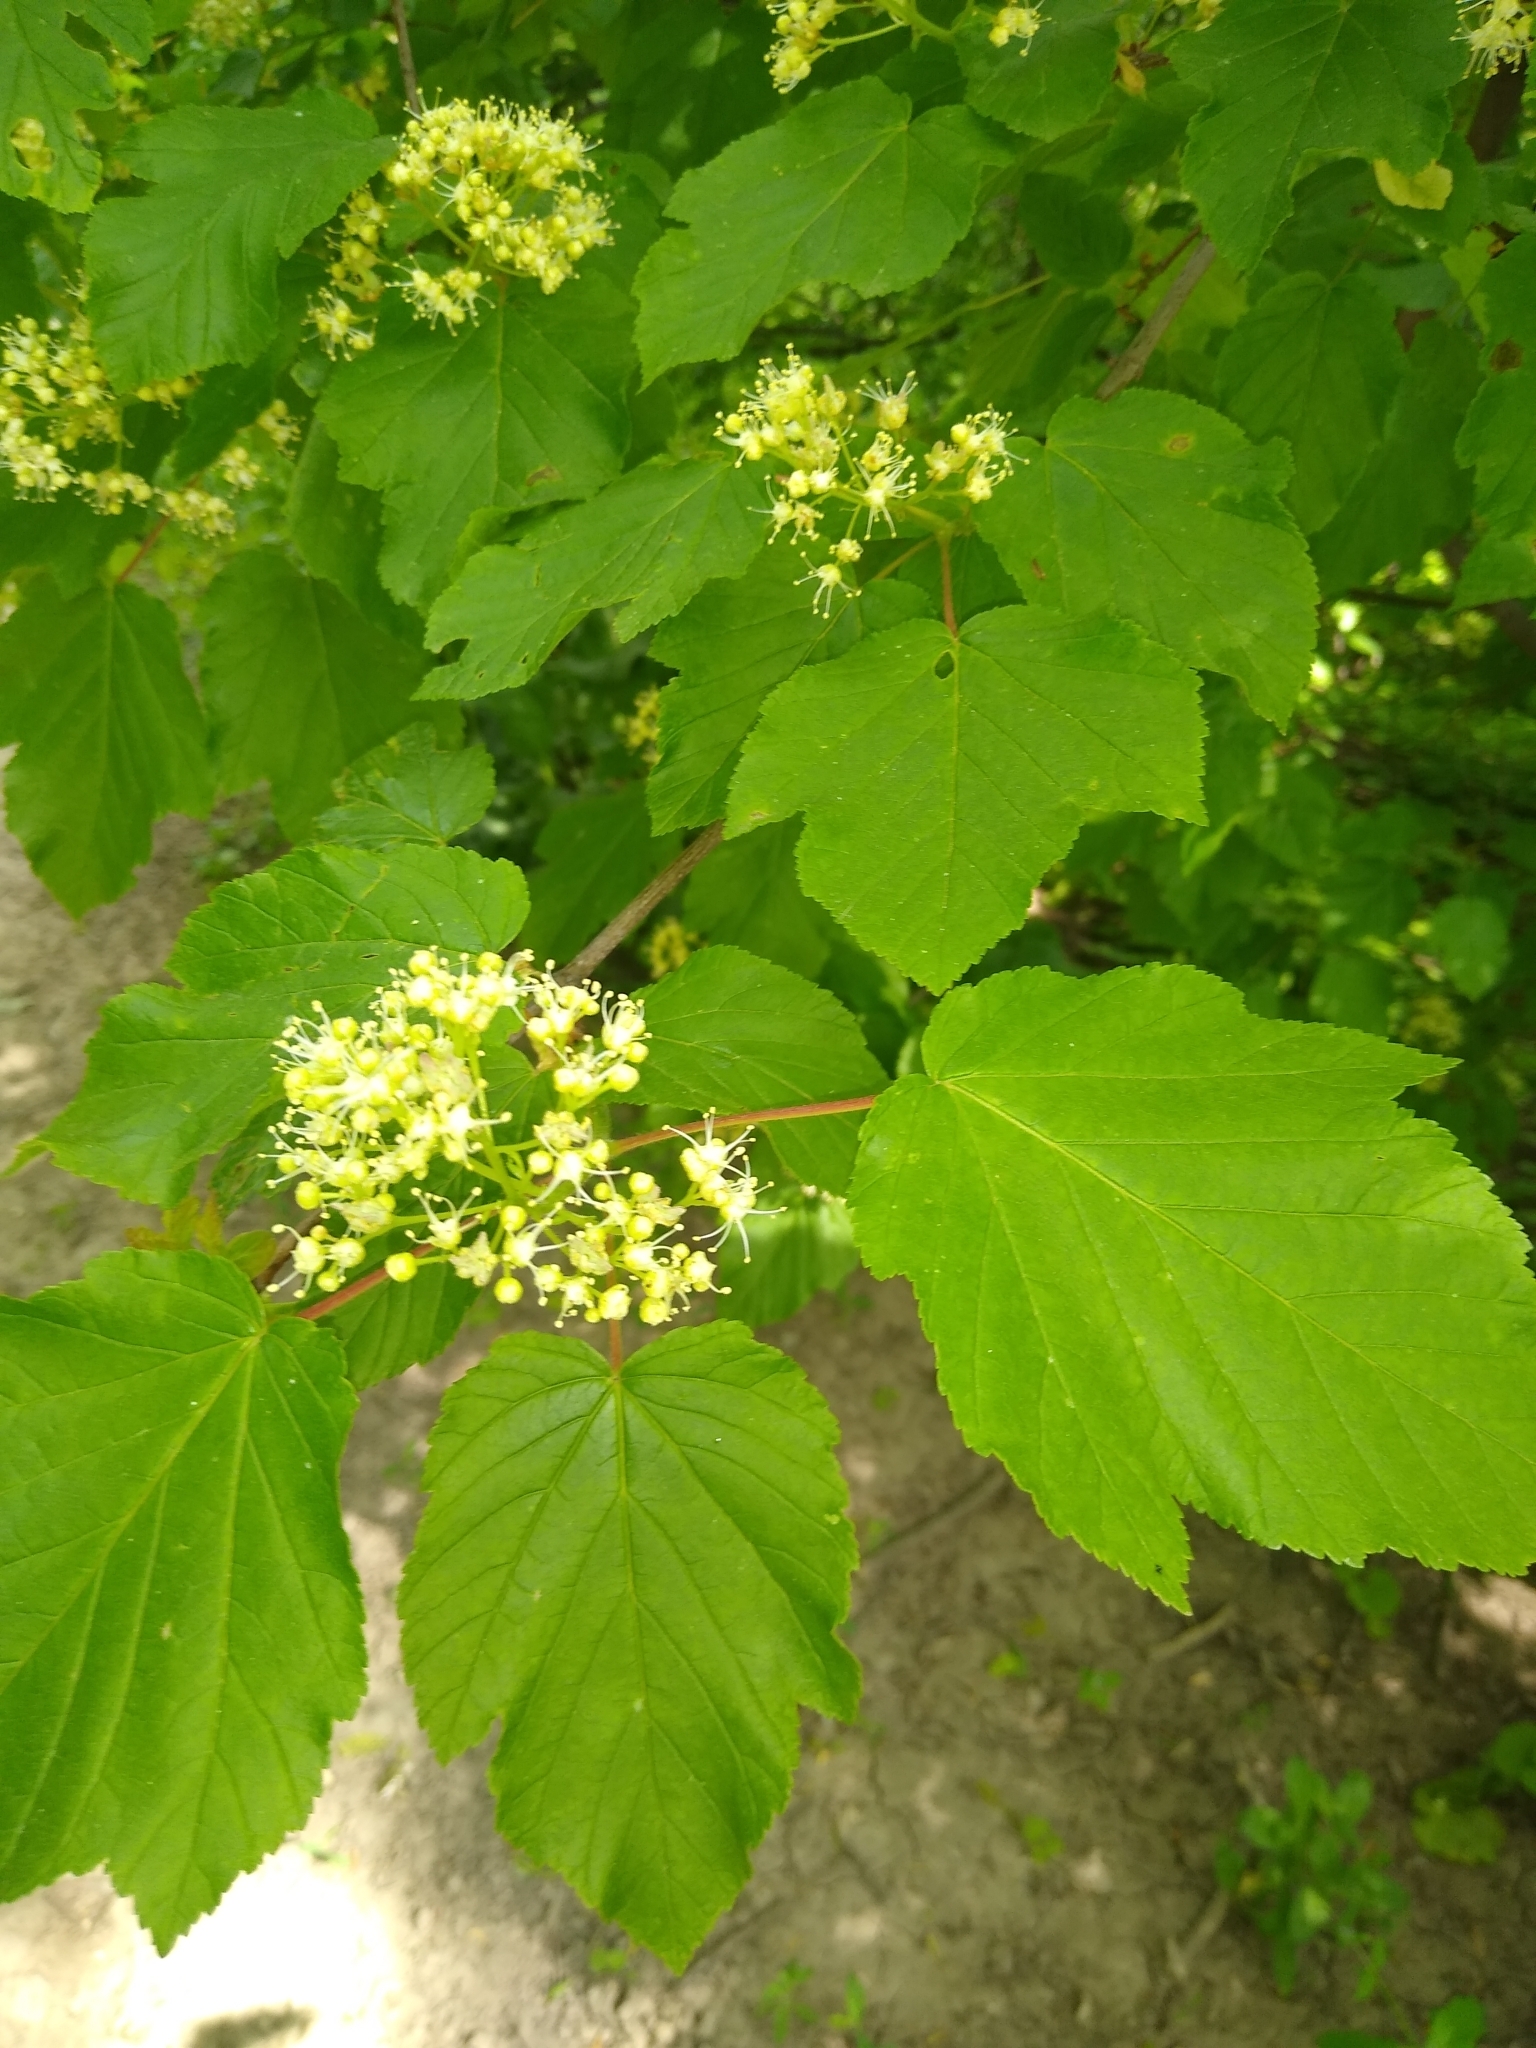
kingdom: Plantae
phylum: Tracheophyta
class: Magnoliopsida
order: Sapindales
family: Sapindaceae
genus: Acer
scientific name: Acer tataricum
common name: Tartar maple
